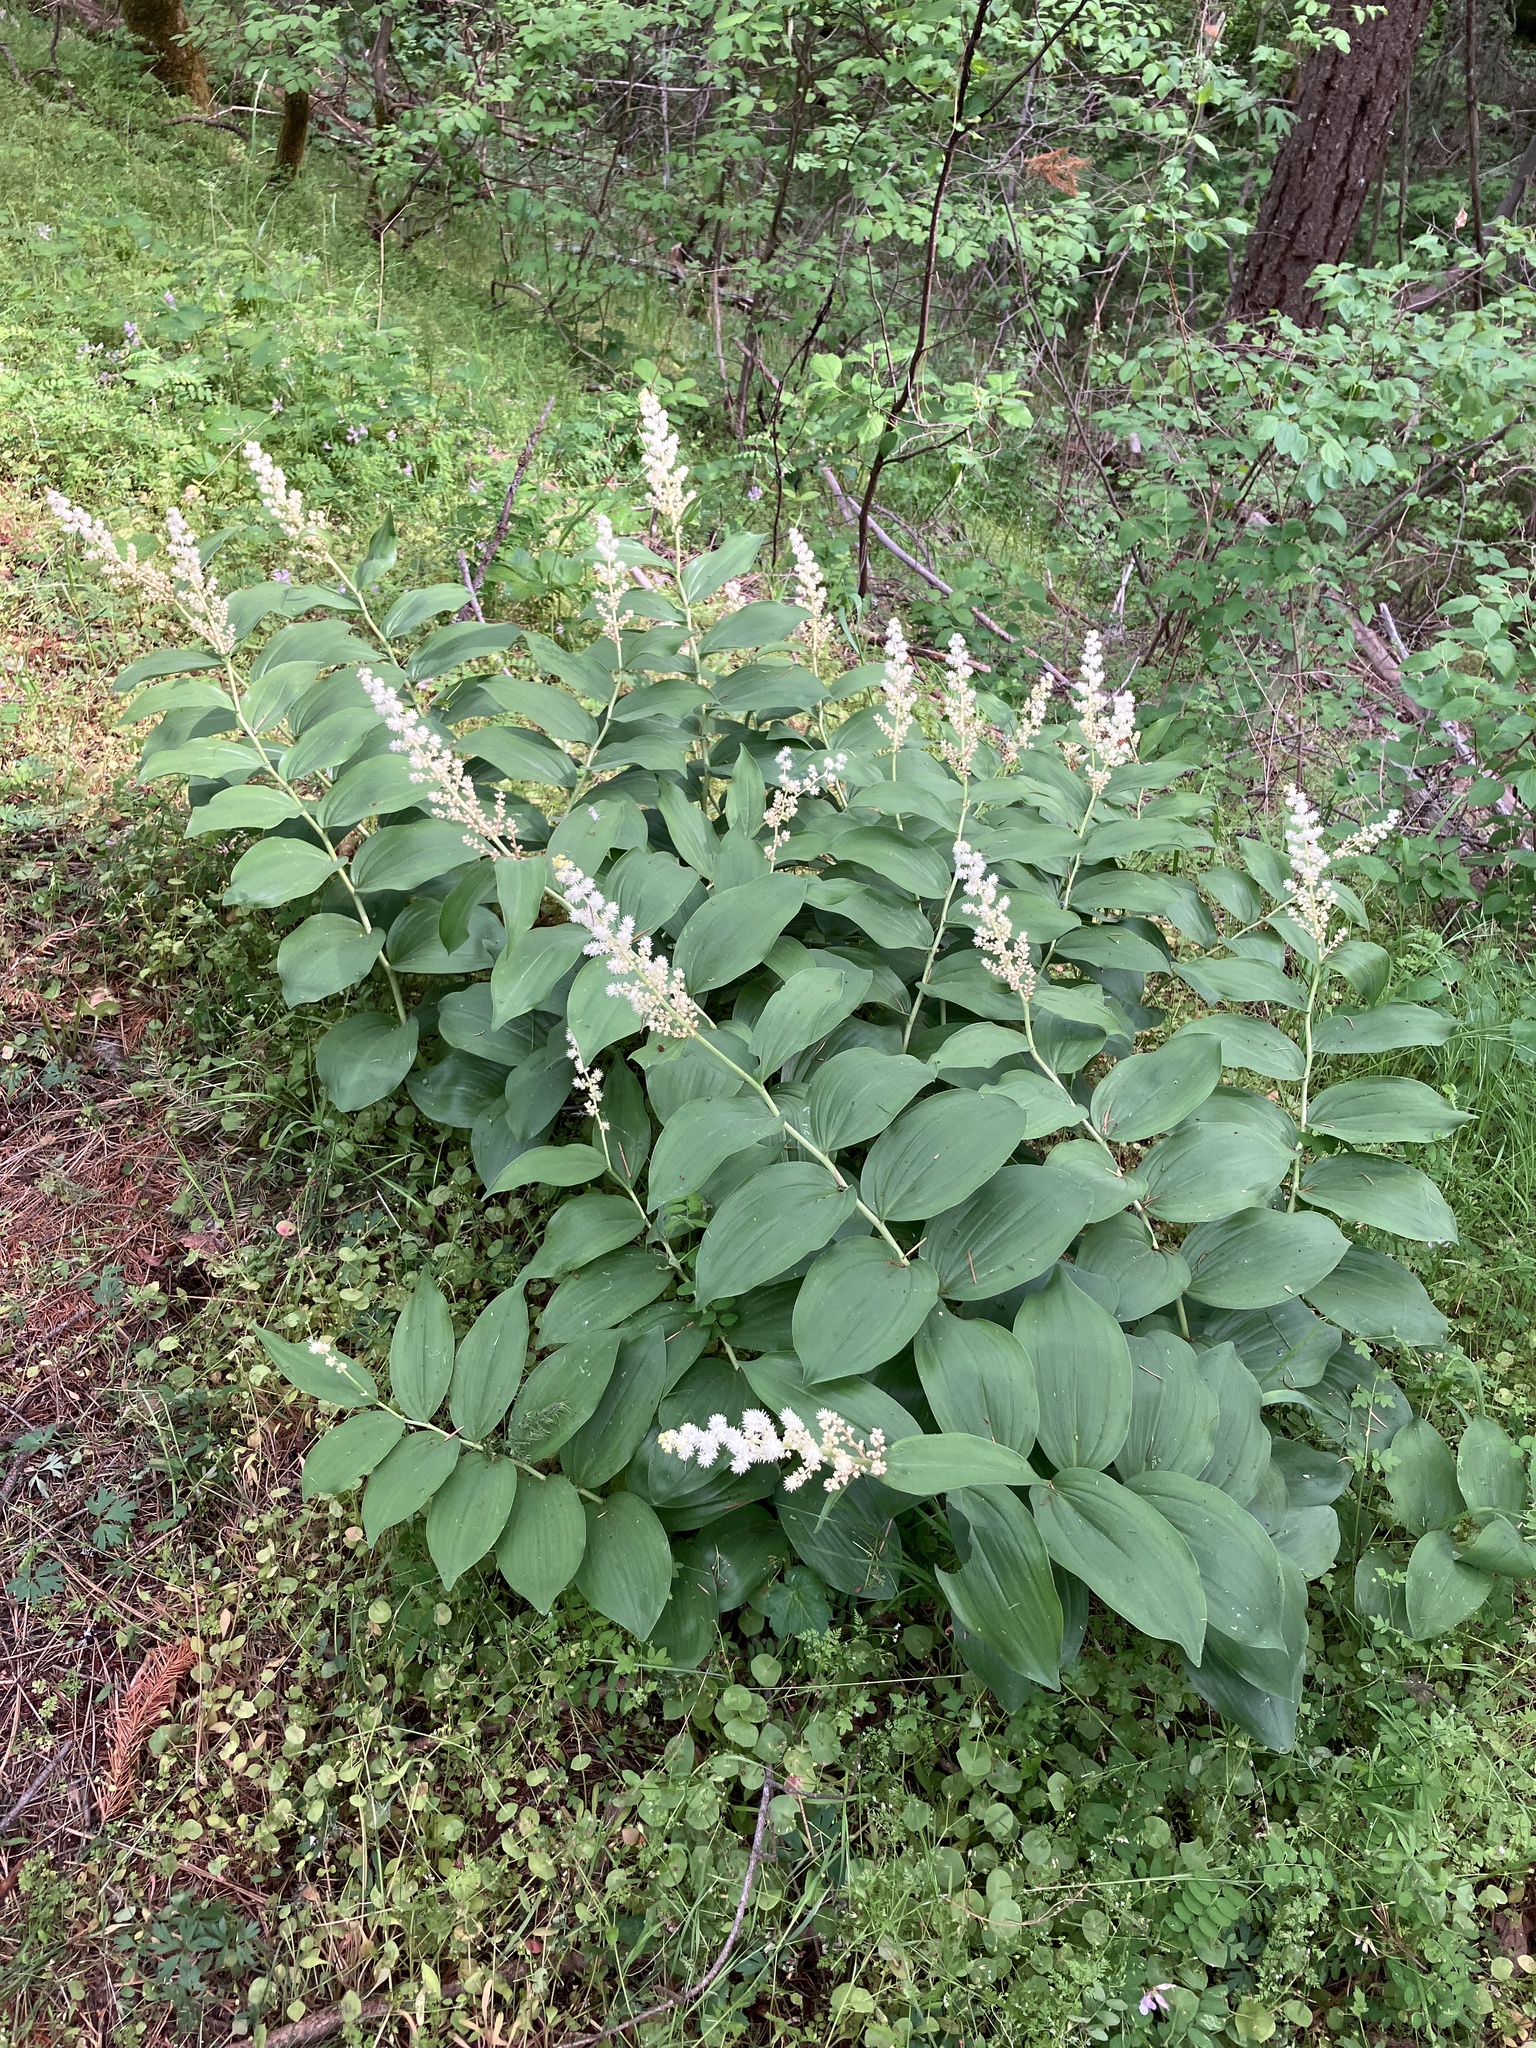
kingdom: Plantae
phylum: Tracheophyta
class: Liliopsida
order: Asparagales
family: Asparagaceae
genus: Maianthemum
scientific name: Maianthemum racemosum
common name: False spikenard
